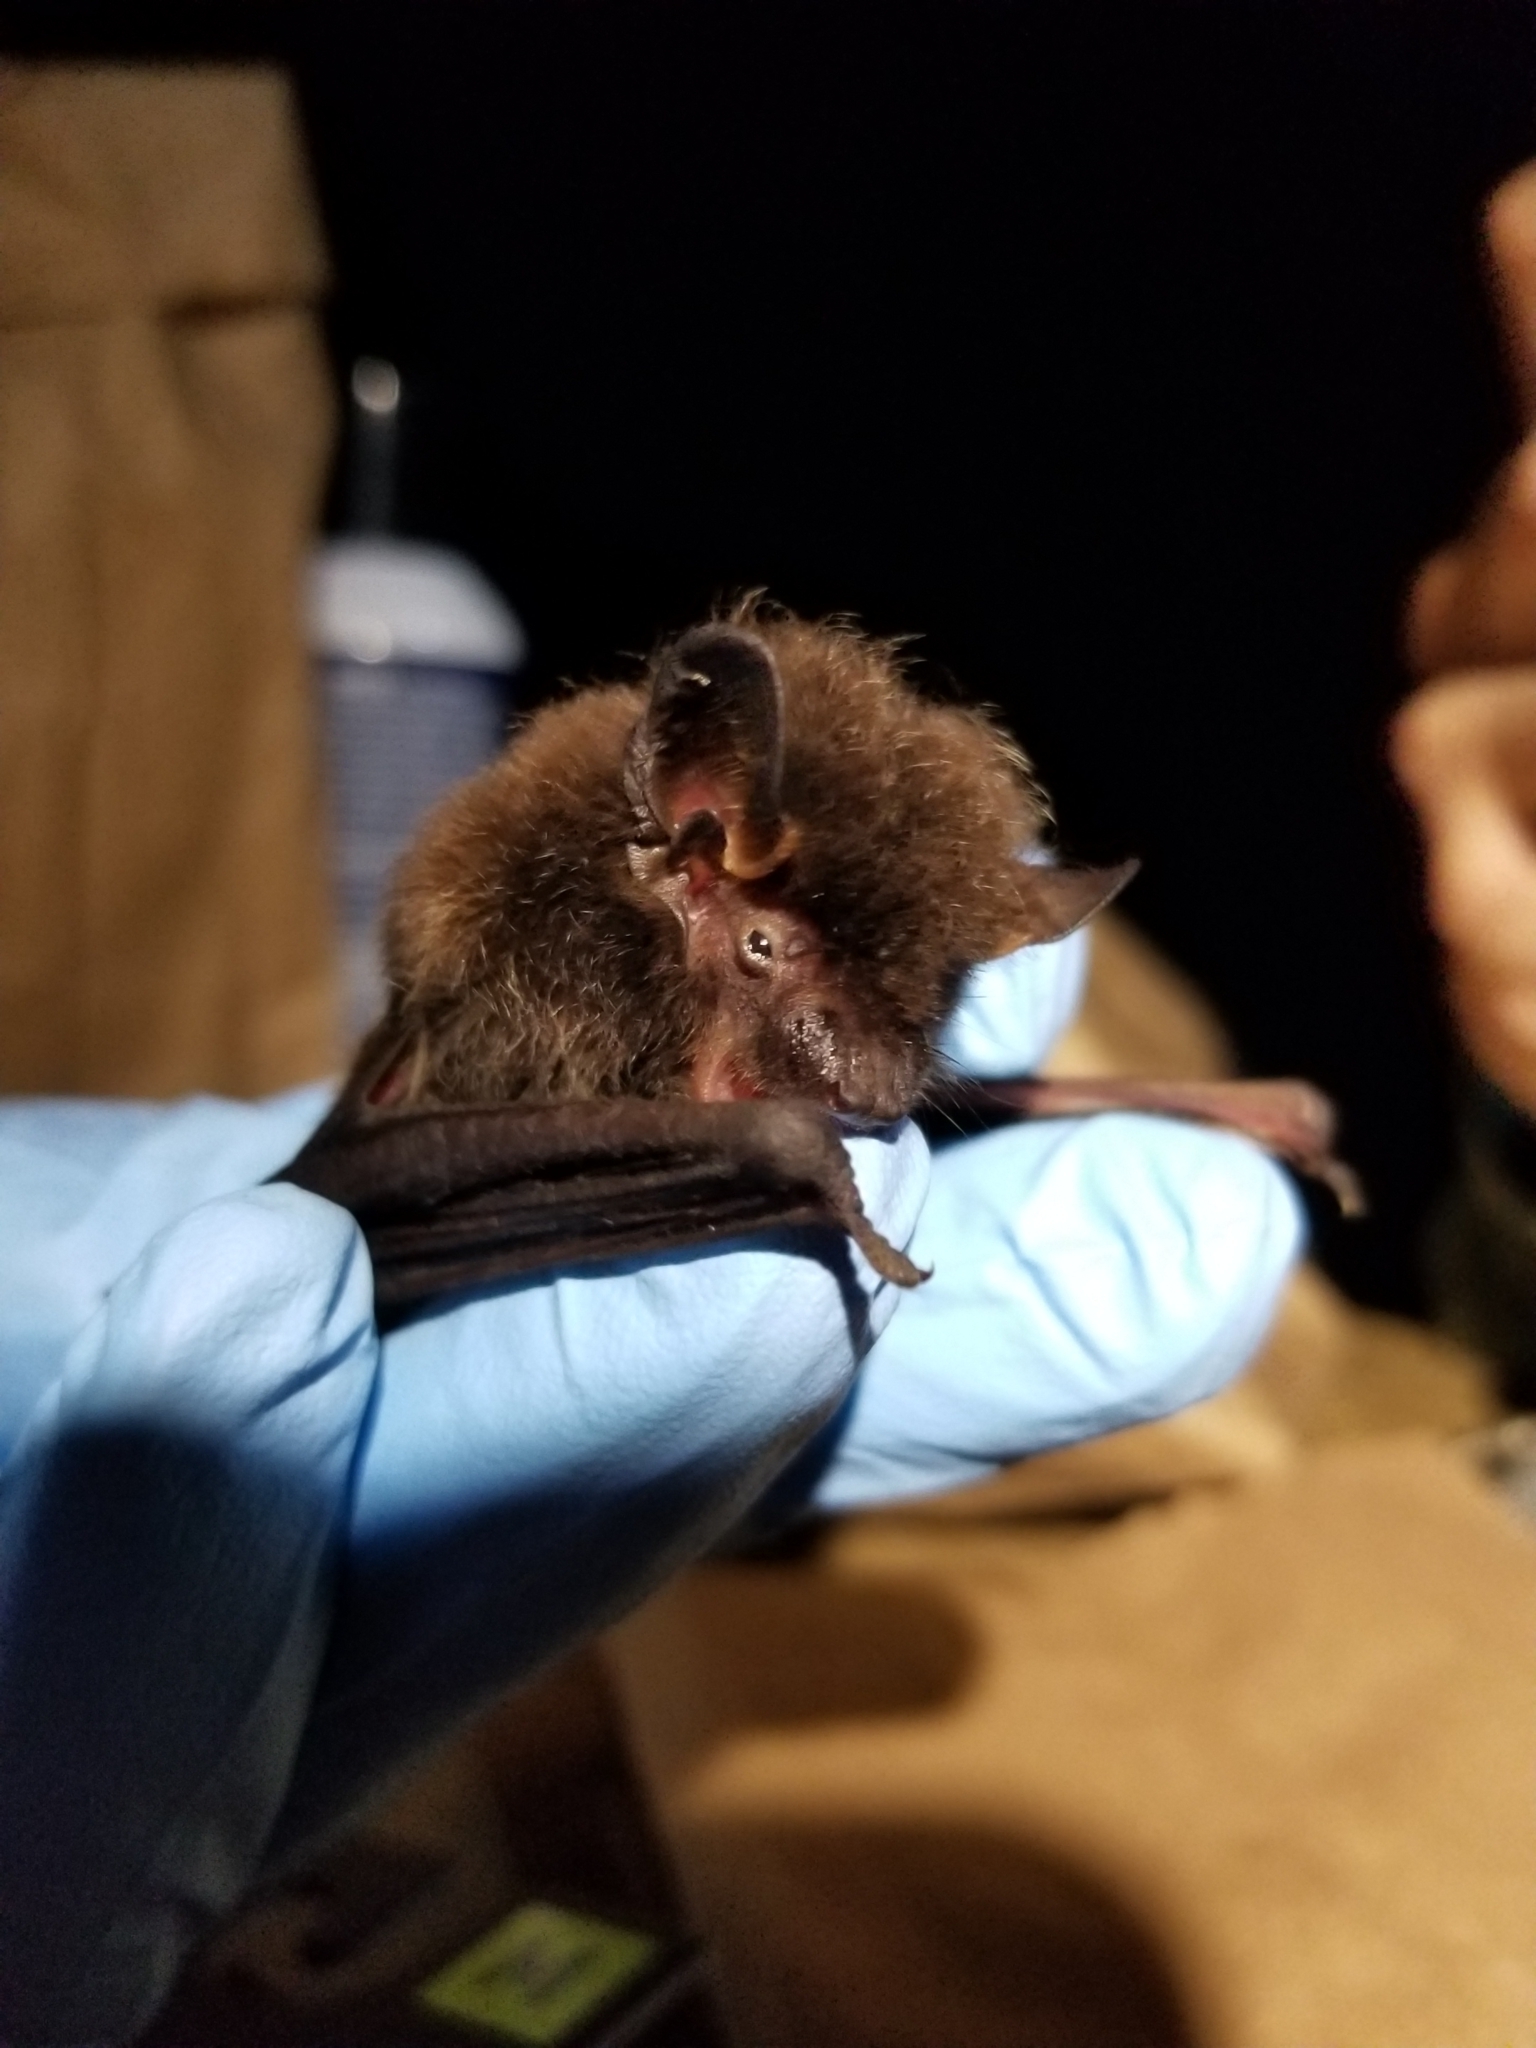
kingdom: Animalia
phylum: Chordata
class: Mammalia
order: Chiroptera
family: Vespertilionidae
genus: Lasionycteris
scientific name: Lasionycteris noctivagans
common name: Silver-haired bat
